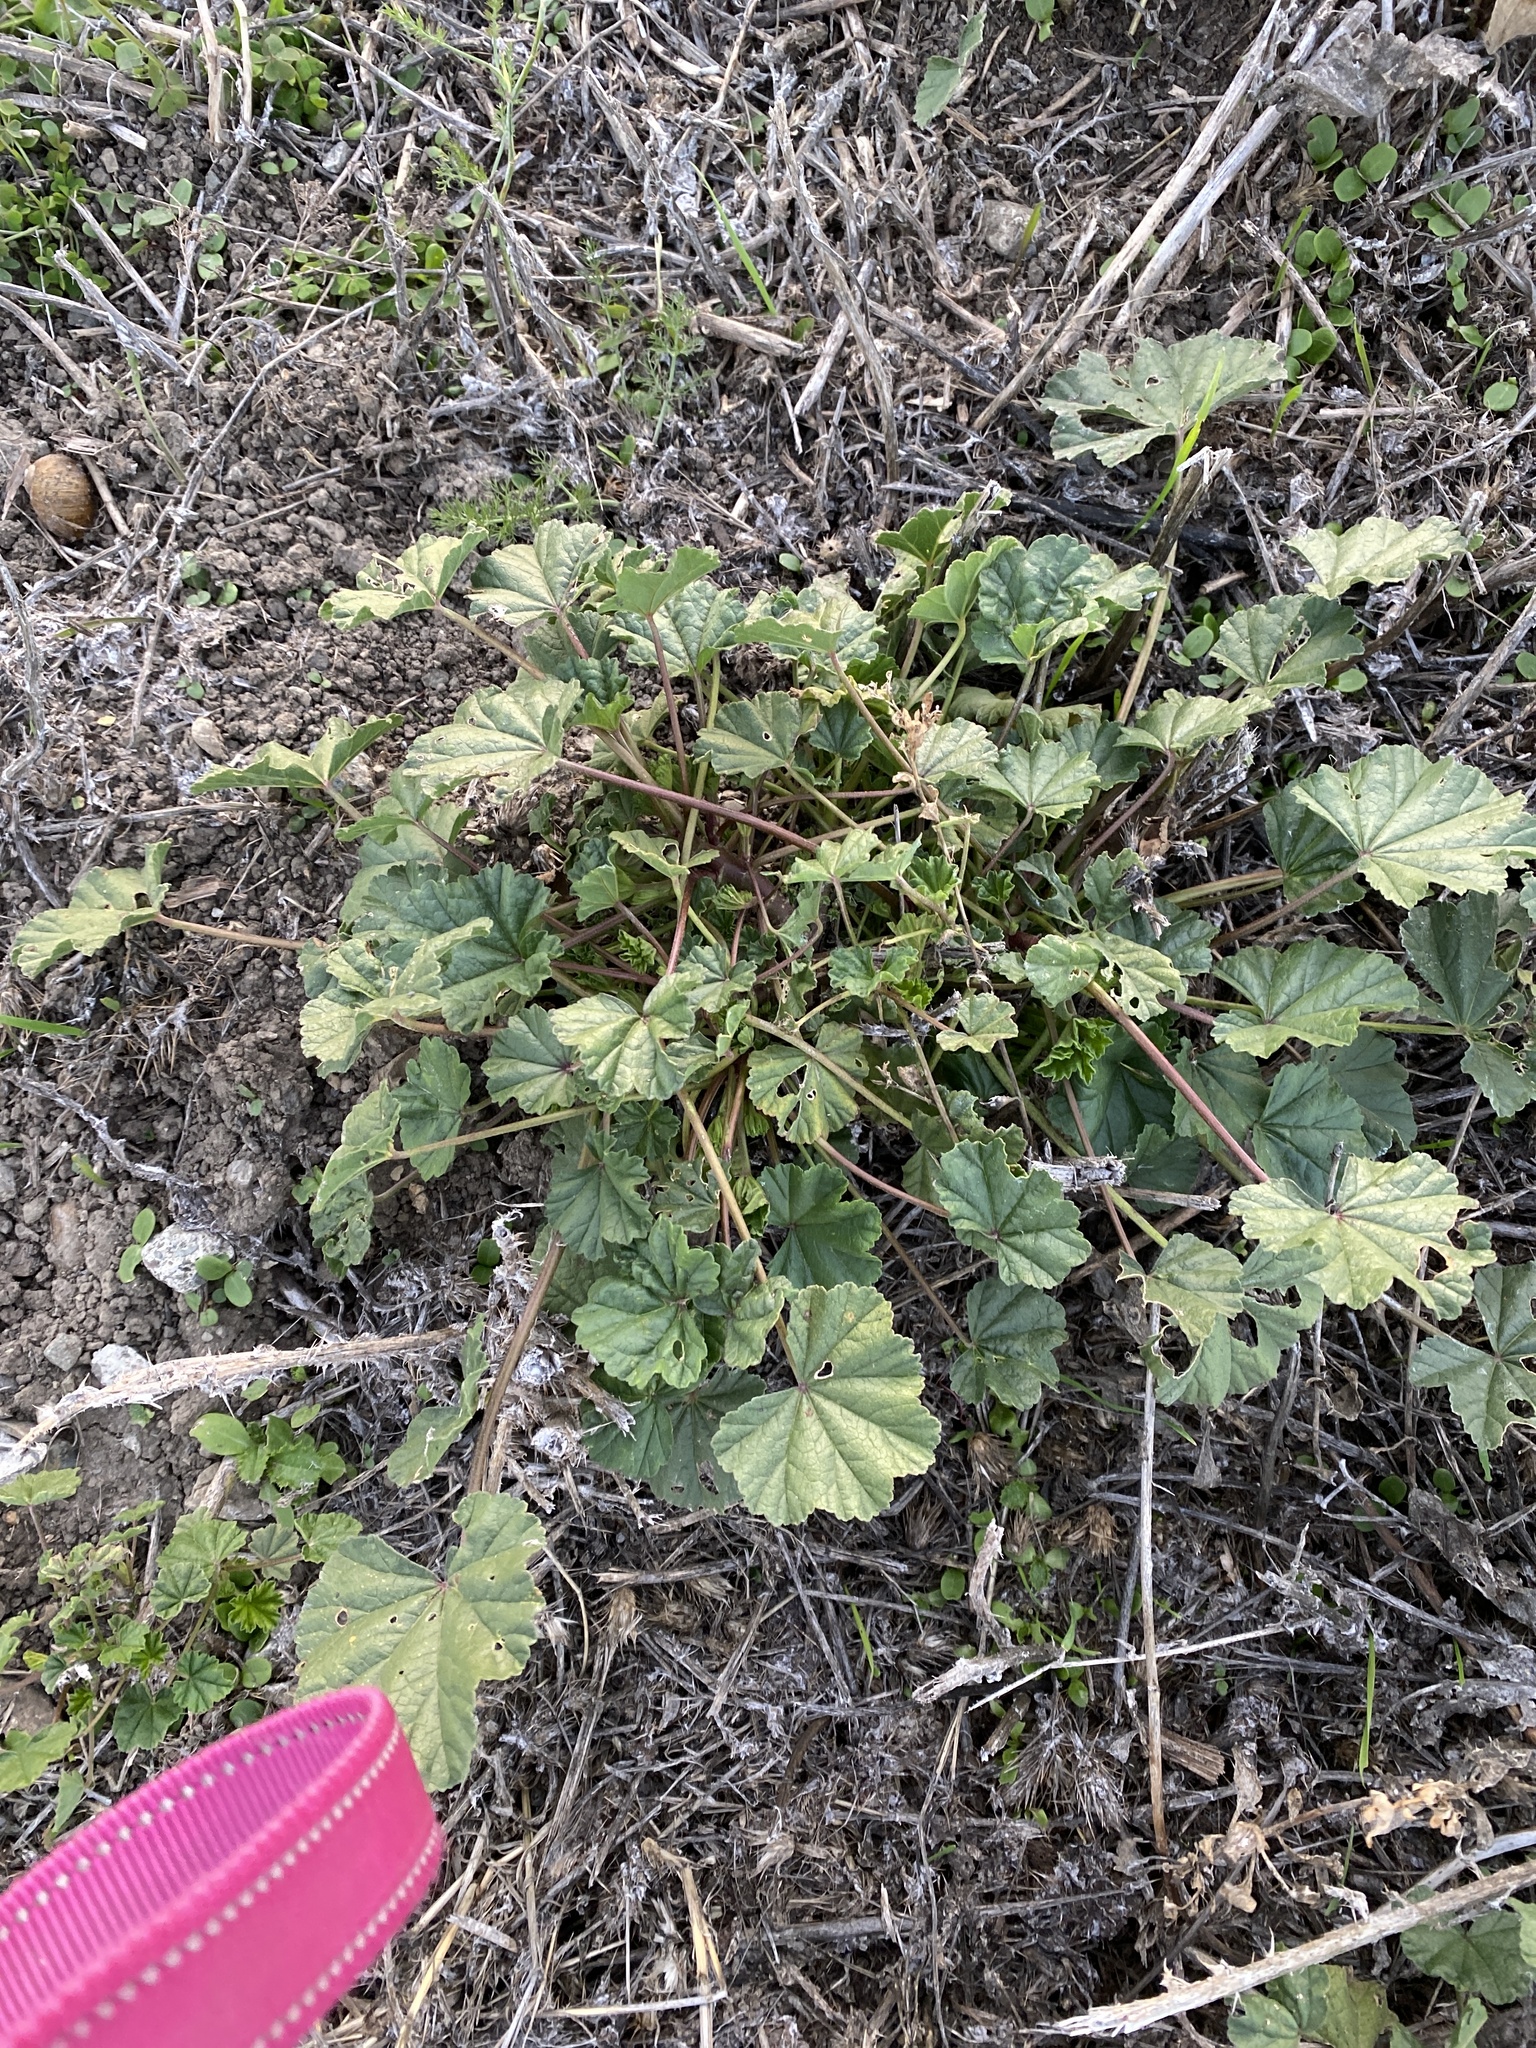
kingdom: Plantae
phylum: Tracheophyta
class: Magnoliopsida
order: Malvales
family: Malvaceae
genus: Malva
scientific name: Malva
